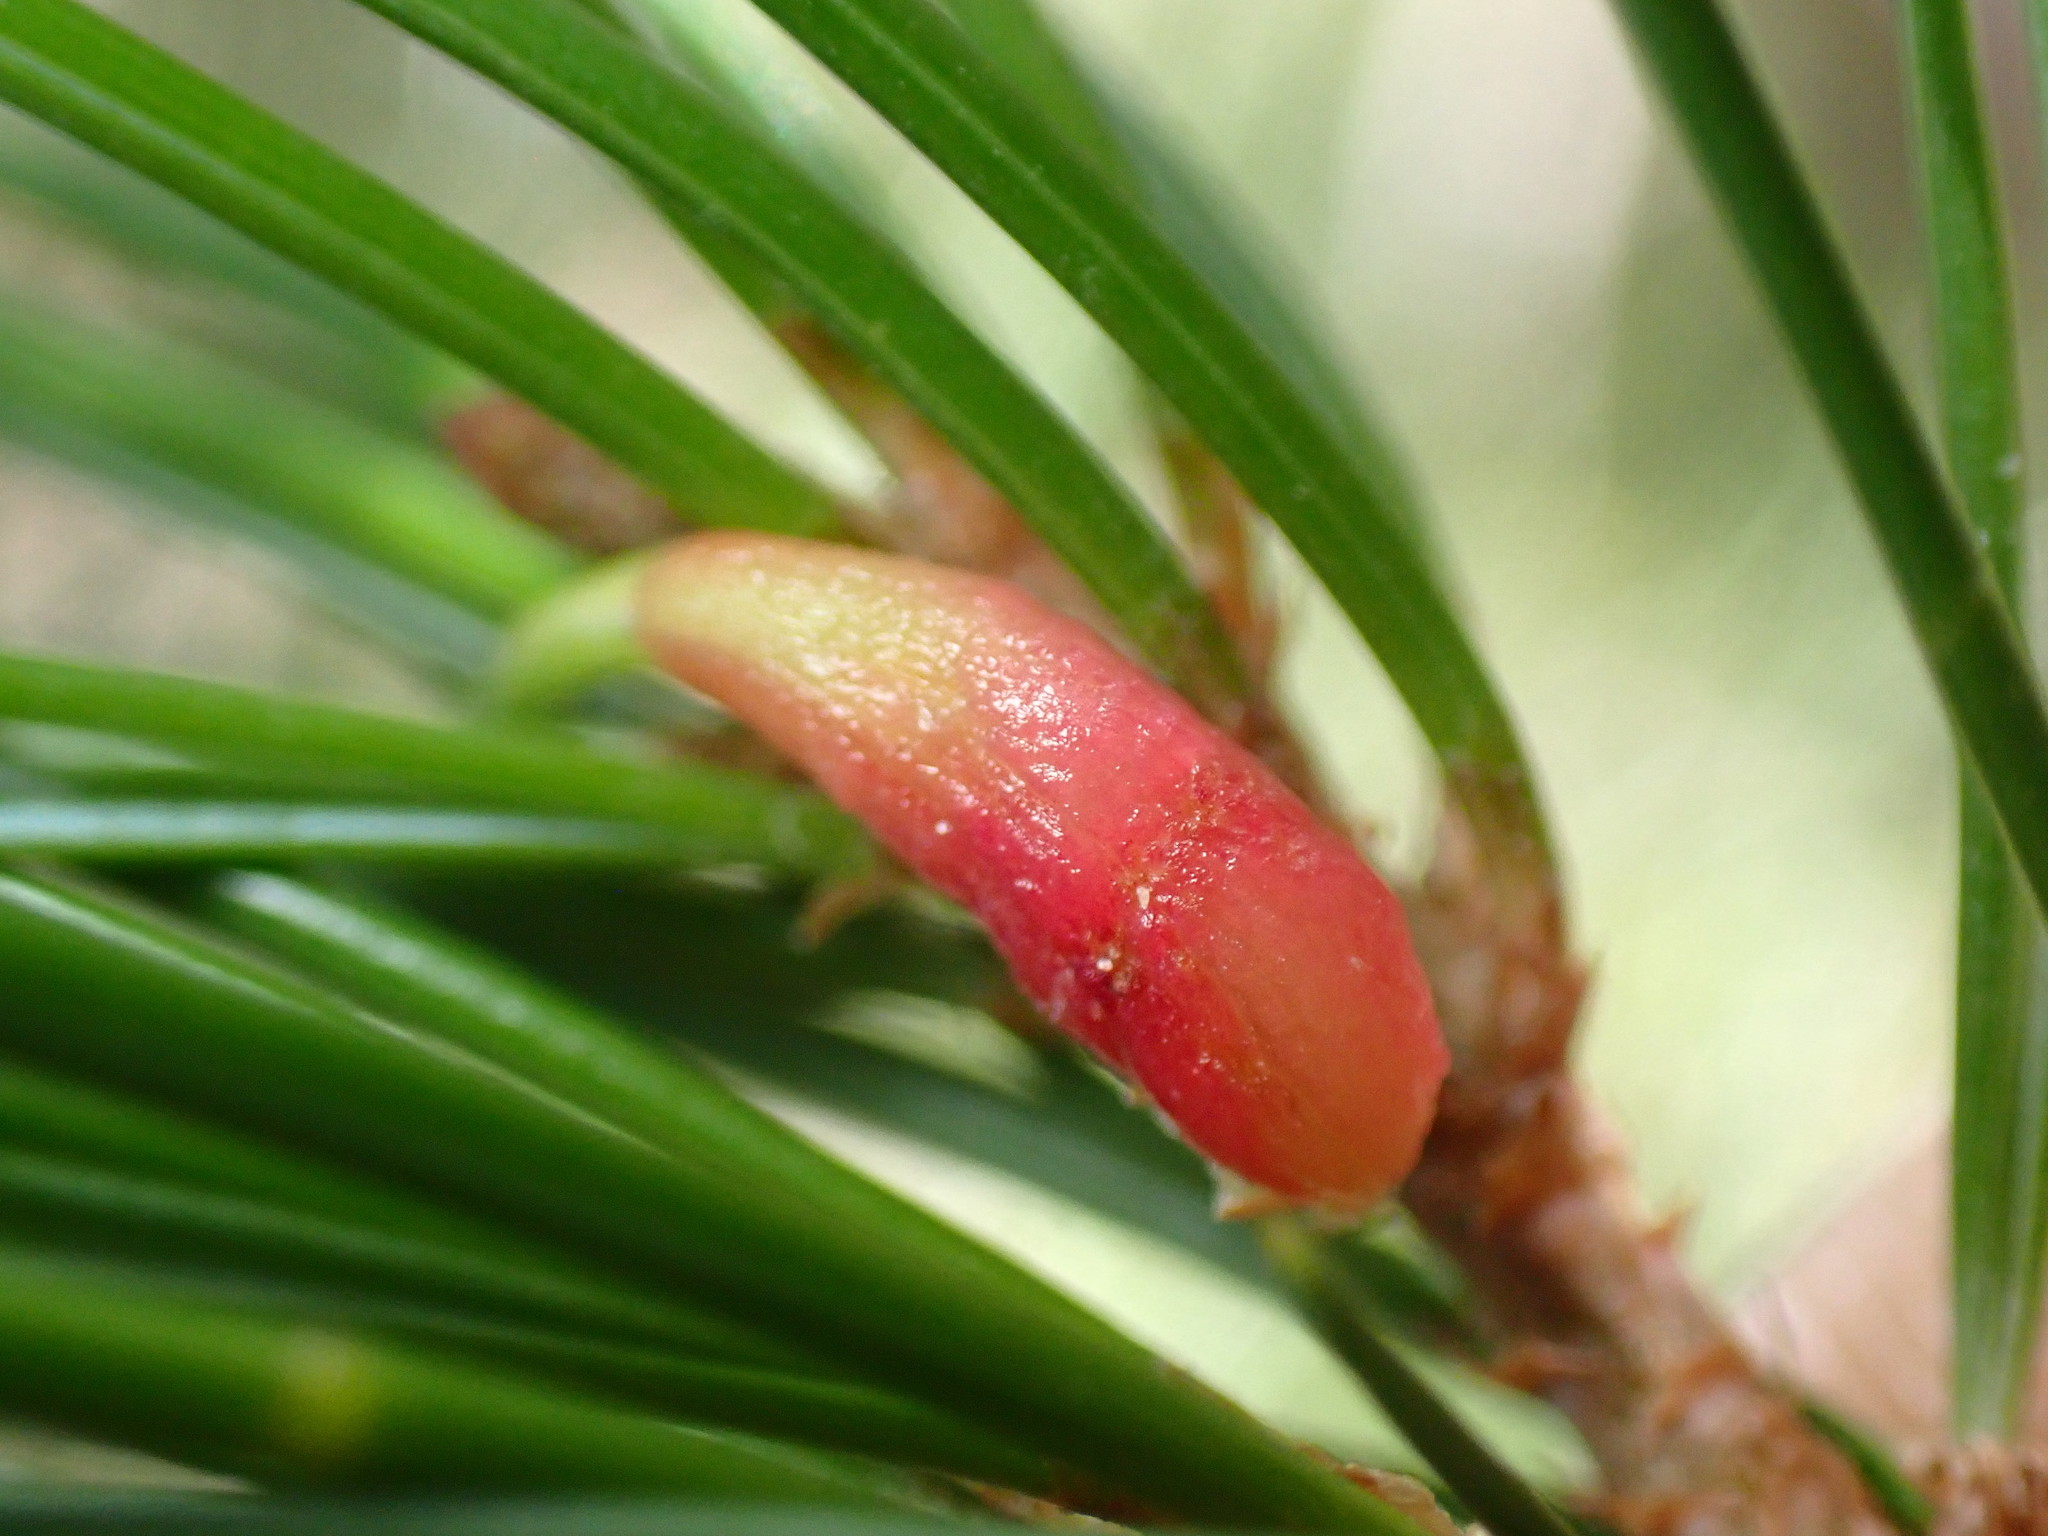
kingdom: Animalia
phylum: Arthropoda
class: Insecta
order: Diptera
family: Cecidomyiidae
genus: Pinyonia
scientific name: Pinyonia edulicola
